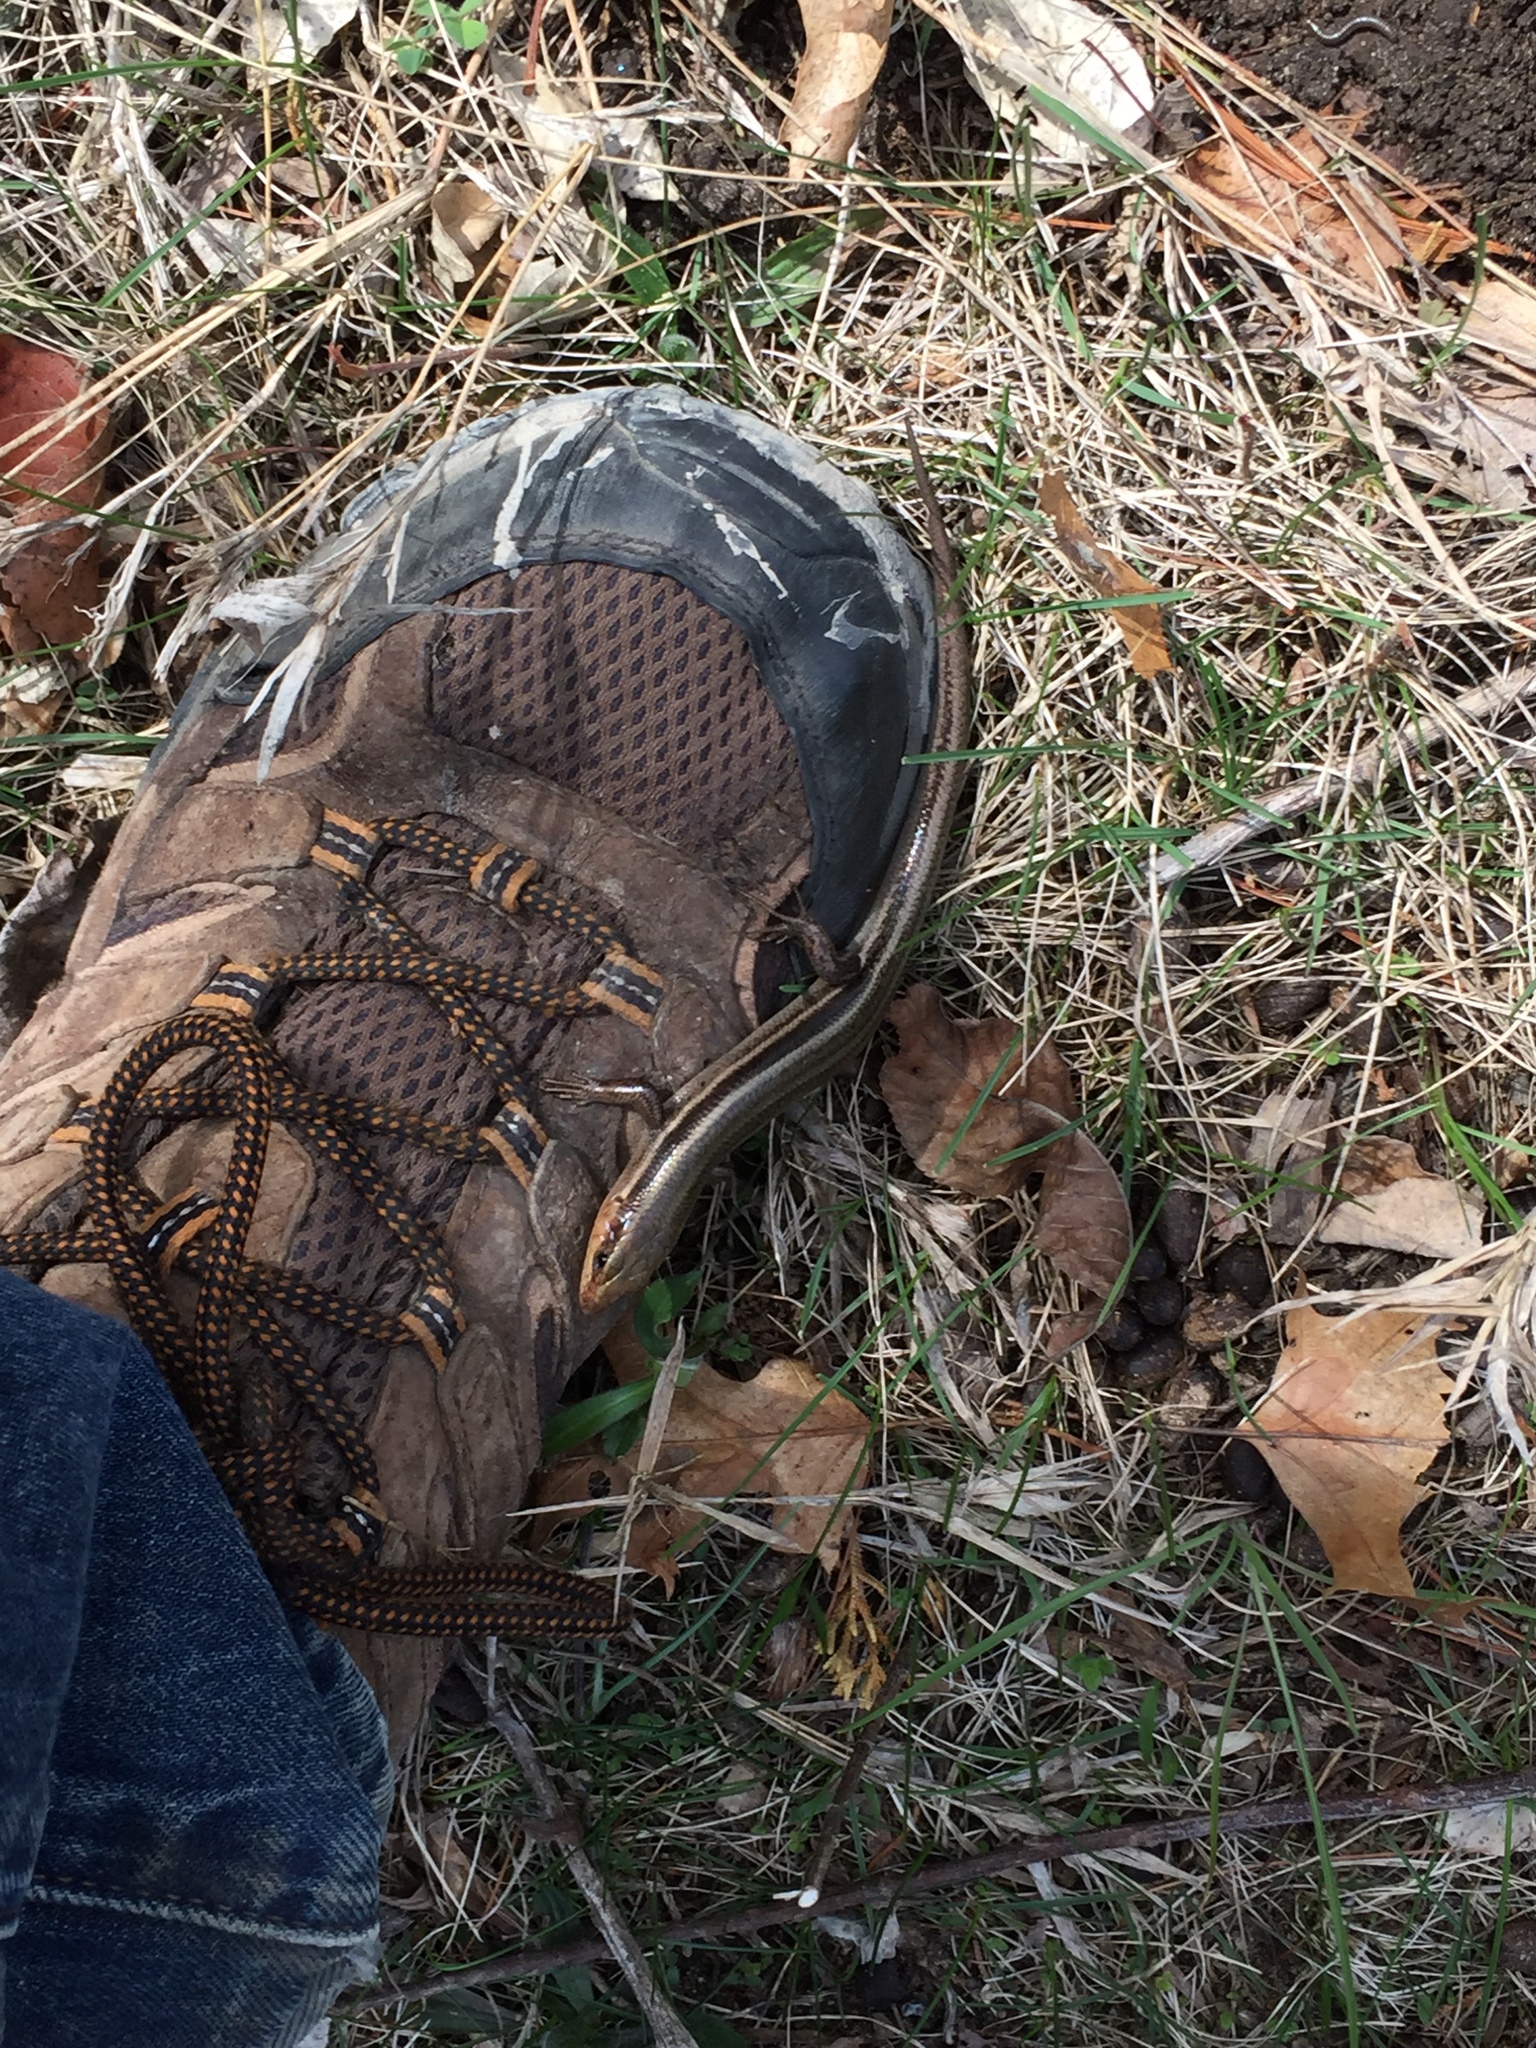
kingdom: Animalia
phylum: Chordata
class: Squamata
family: Scincidae
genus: Plestiodon
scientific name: Plestiodon fasciatus
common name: Five-lined skink
